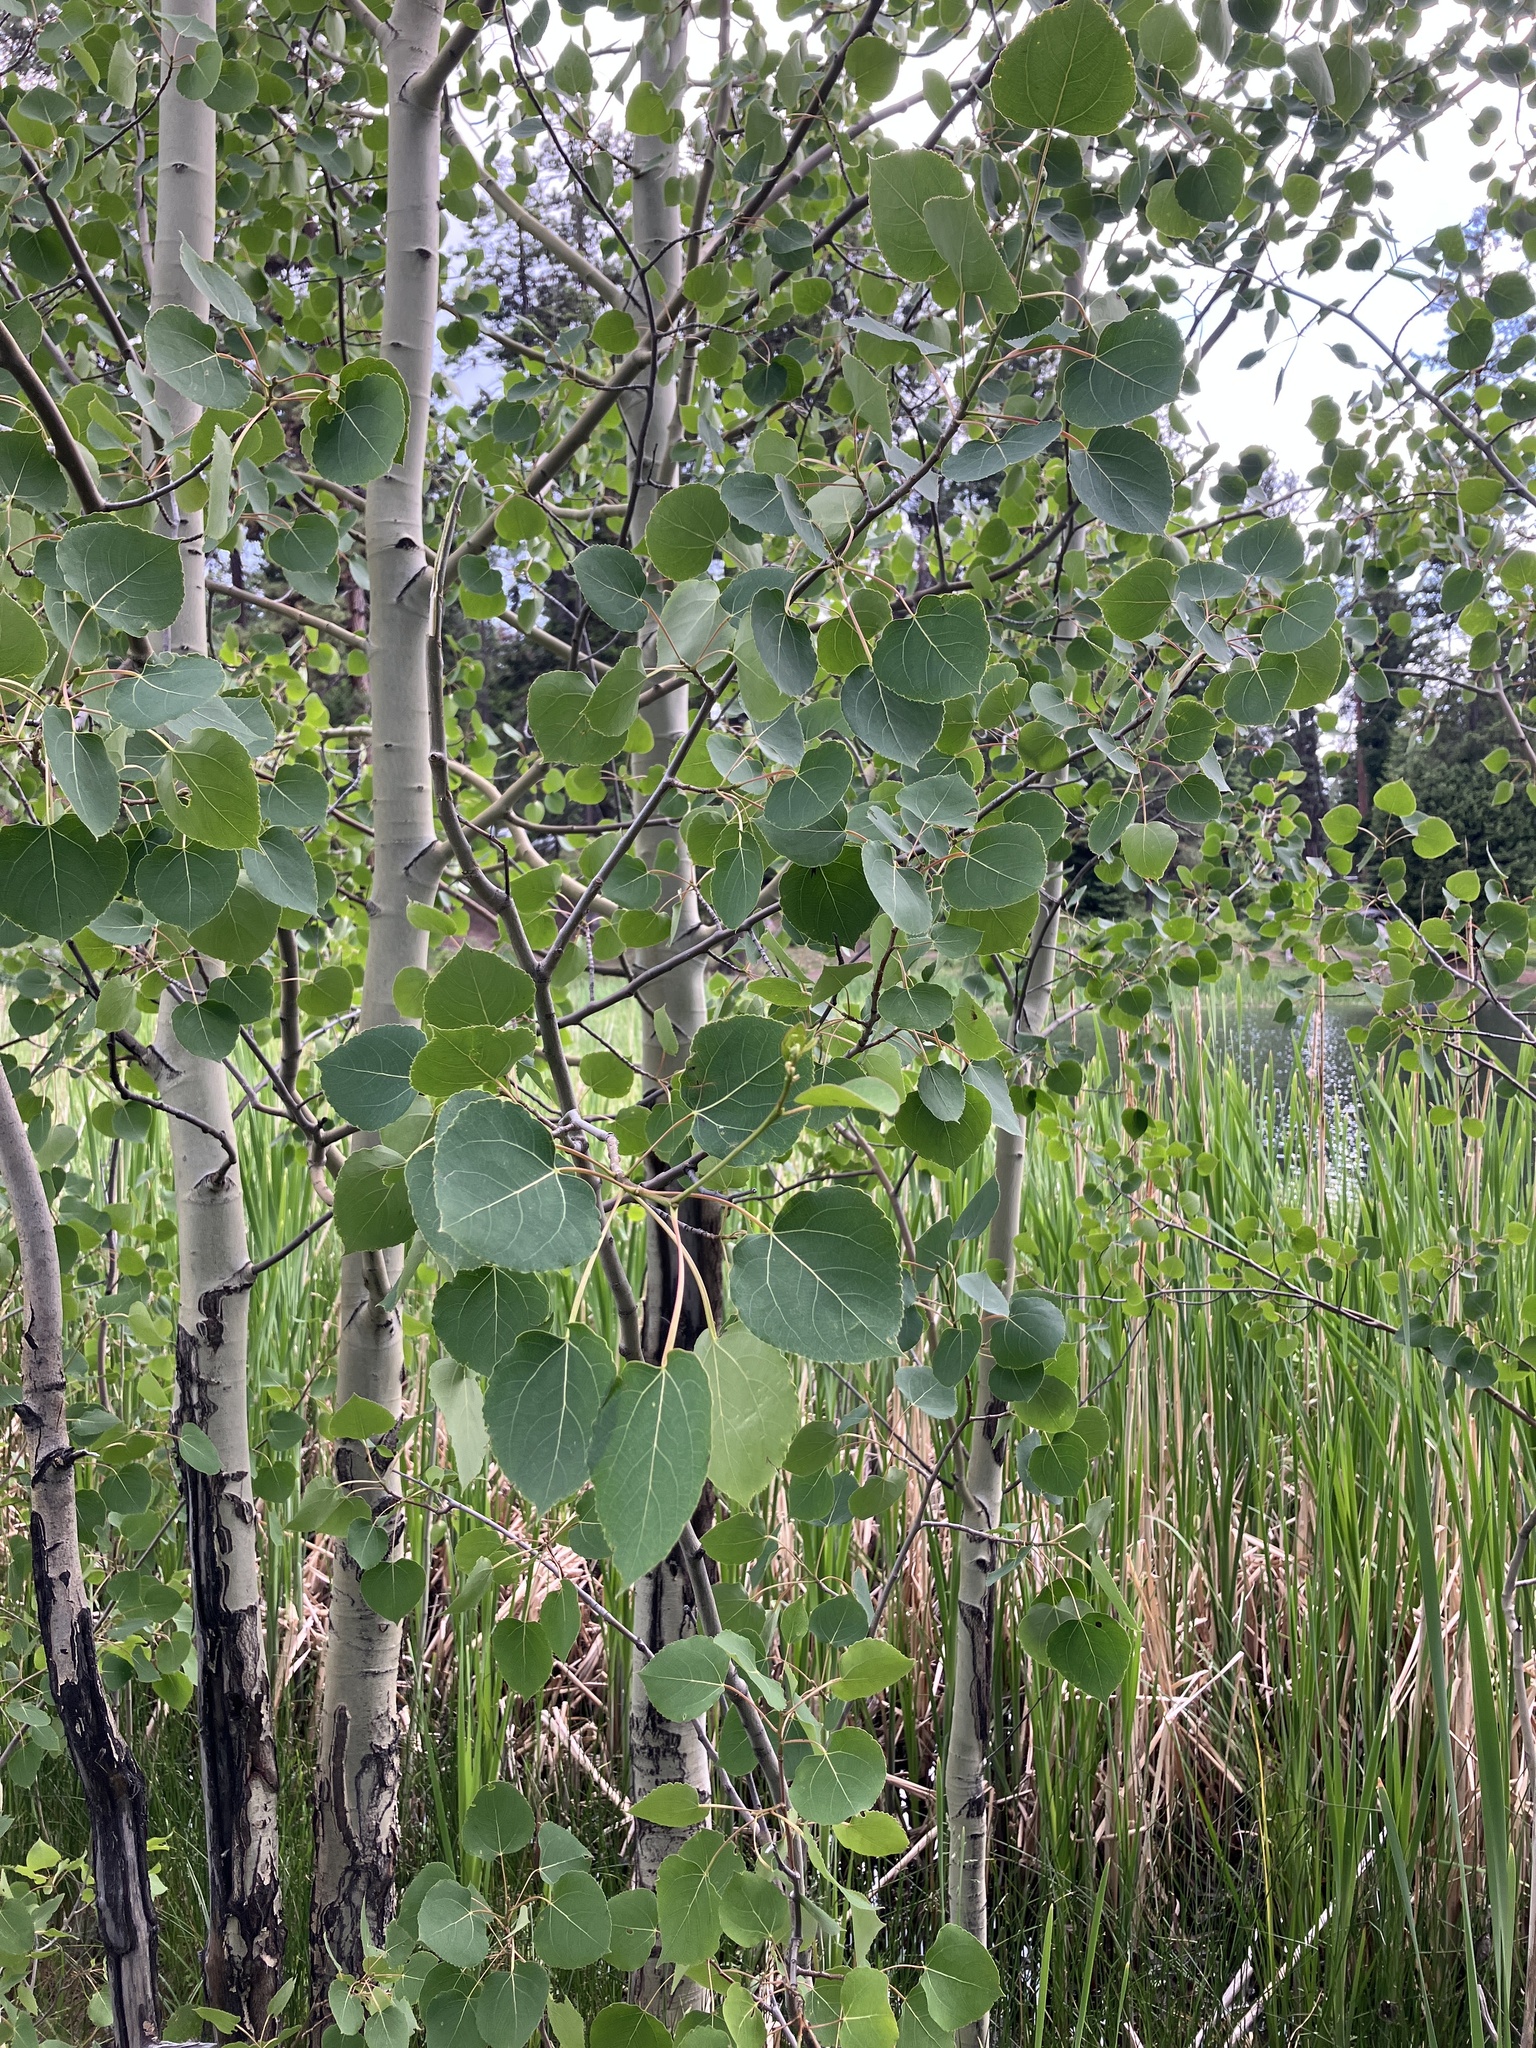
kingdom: Plantae
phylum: Tracheophyta
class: Magnoliopsida
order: Malpighiales
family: Salicaceae
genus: Populus
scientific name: Populus tremuloides
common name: Quaking aspen
